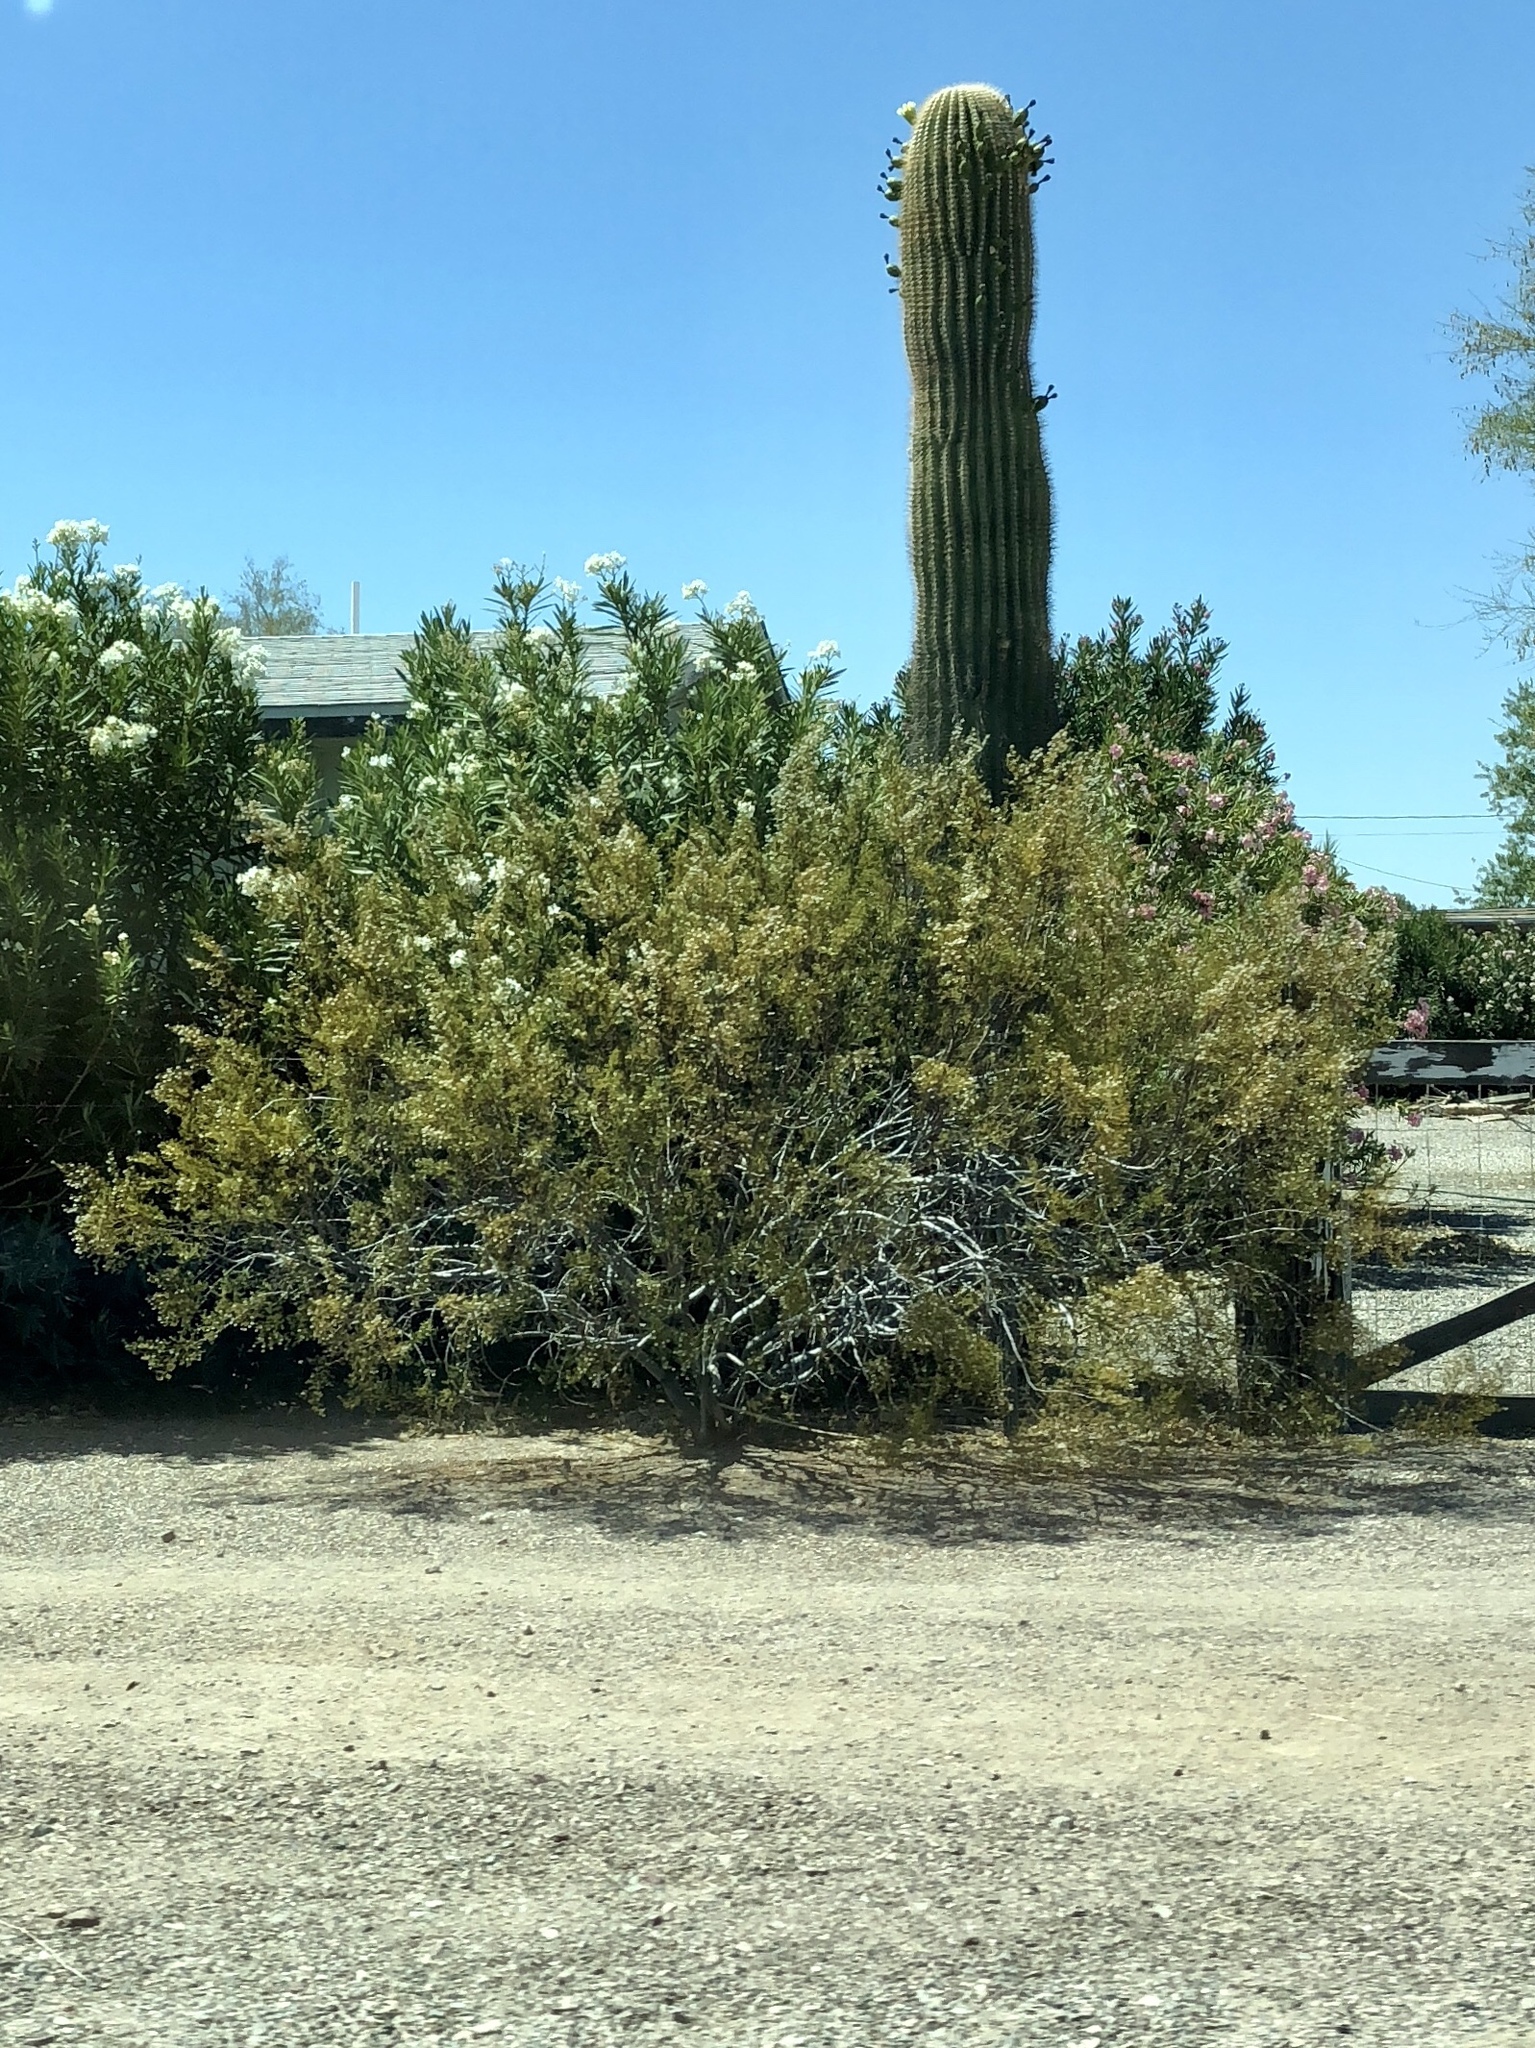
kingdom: Plantae
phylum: Tracheophyta
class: Magnoliopsida
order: Zygophyllales
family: Zygophyllaceae
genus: Larrea
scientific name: Larrea tridentata
